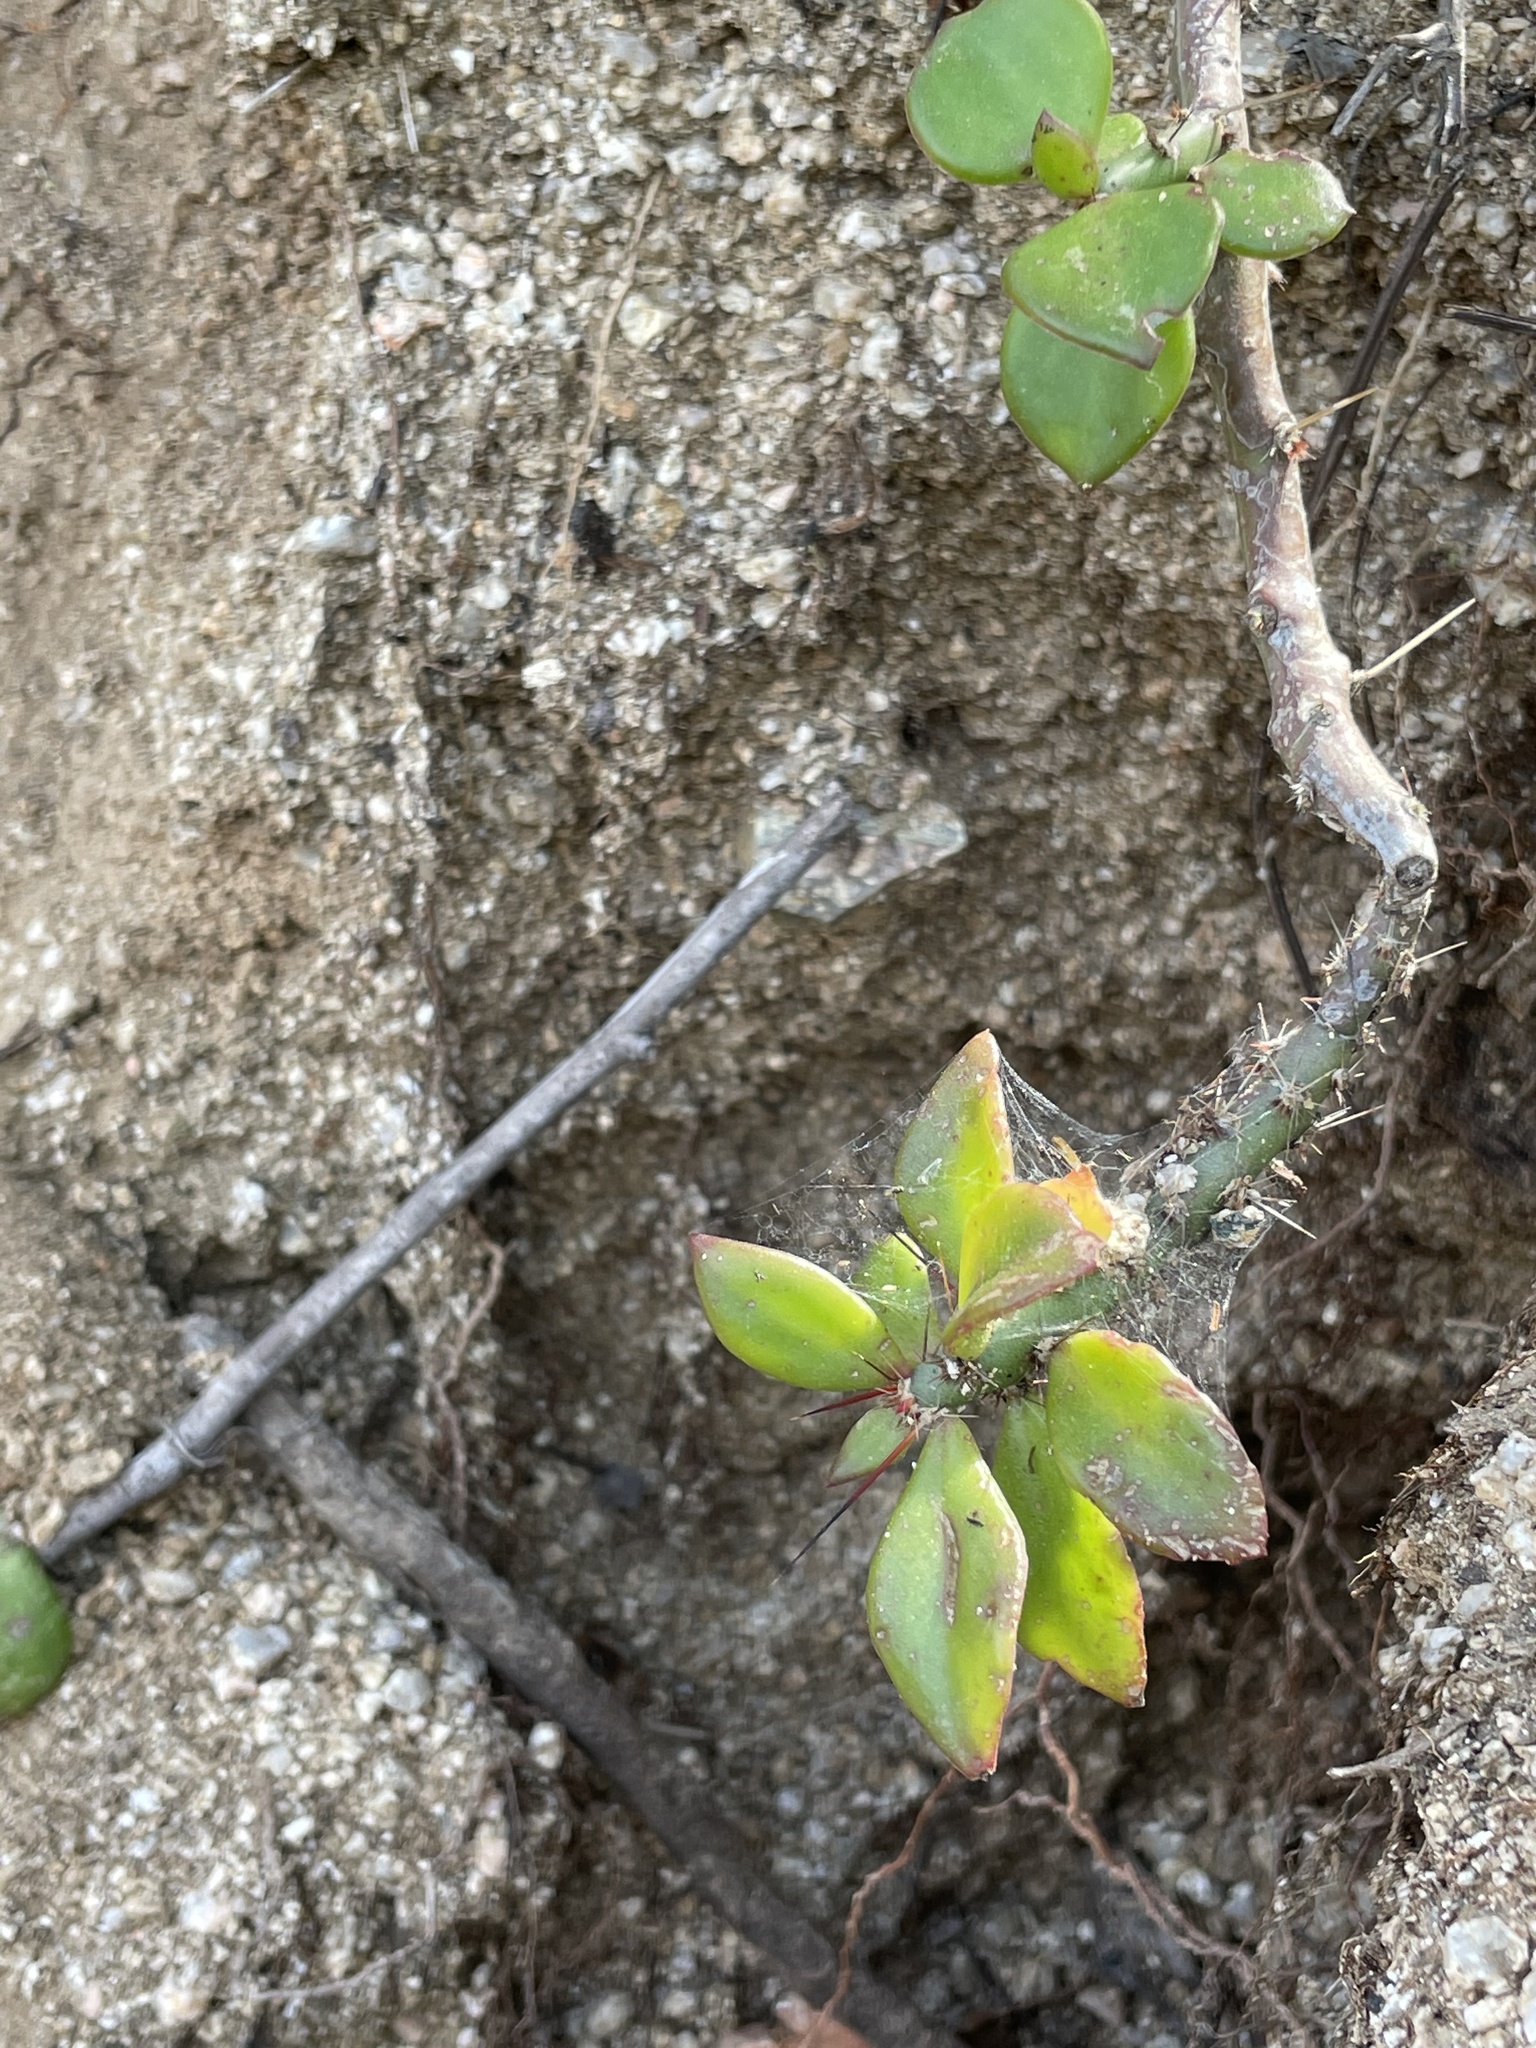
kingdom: Plantae
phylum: Tracheophyta
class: Magnoliopsida
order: Caryophyllales
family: Cactaceae
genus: Pereskiopsis
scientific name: Pereskiopsis porteri
